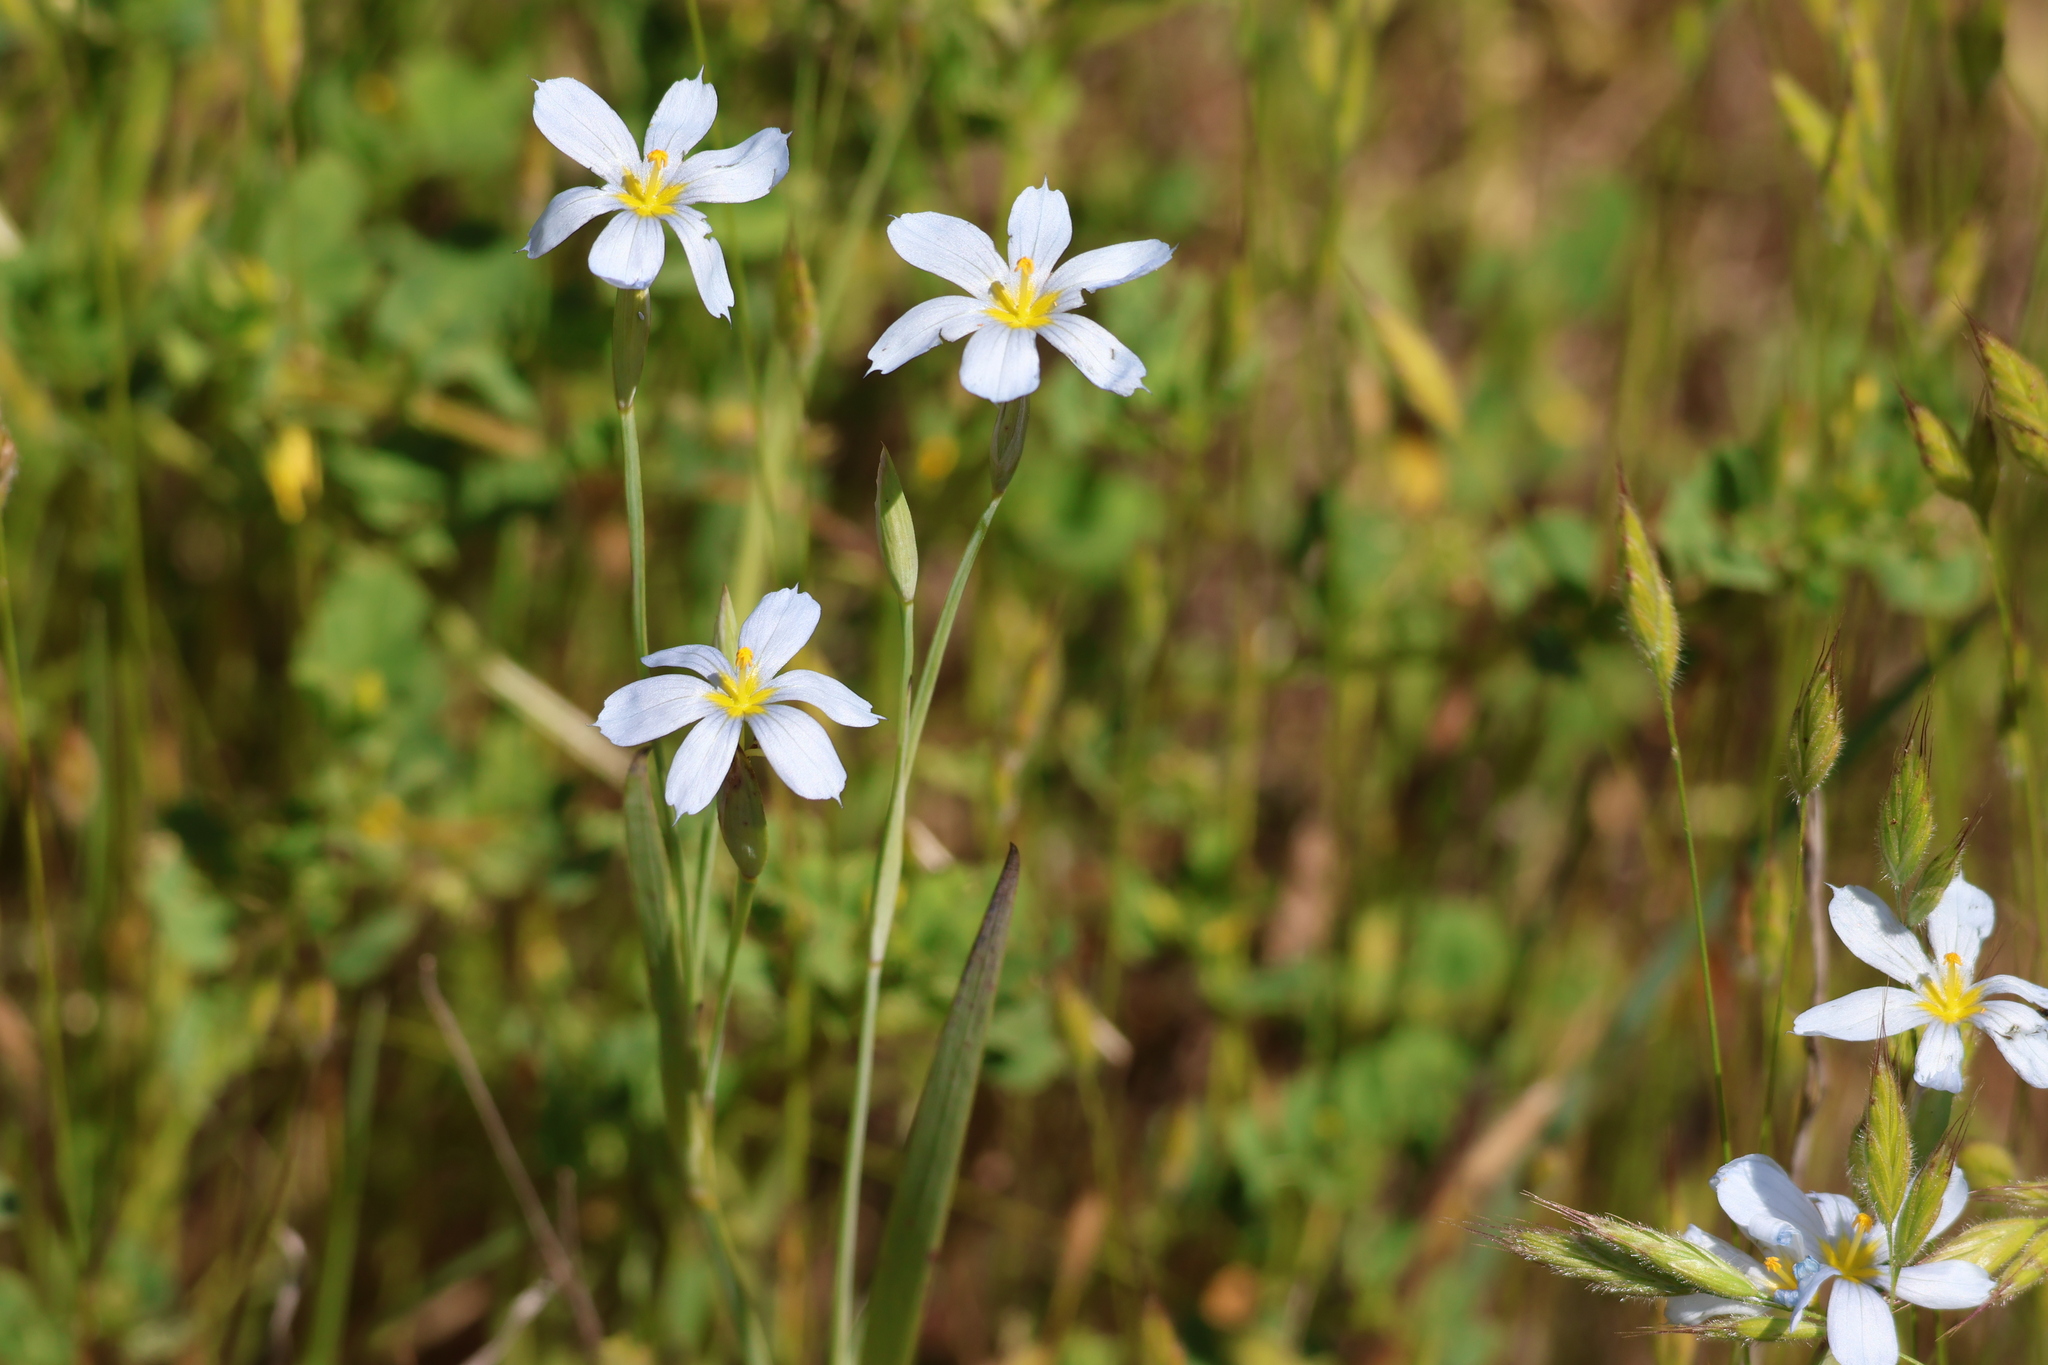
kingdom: Plantae
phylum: Tracheophyta
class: Liliopsida
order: Asparagales
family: Iridaceae
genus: Sisyrinchium
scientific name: Sisyrinchium bellum
